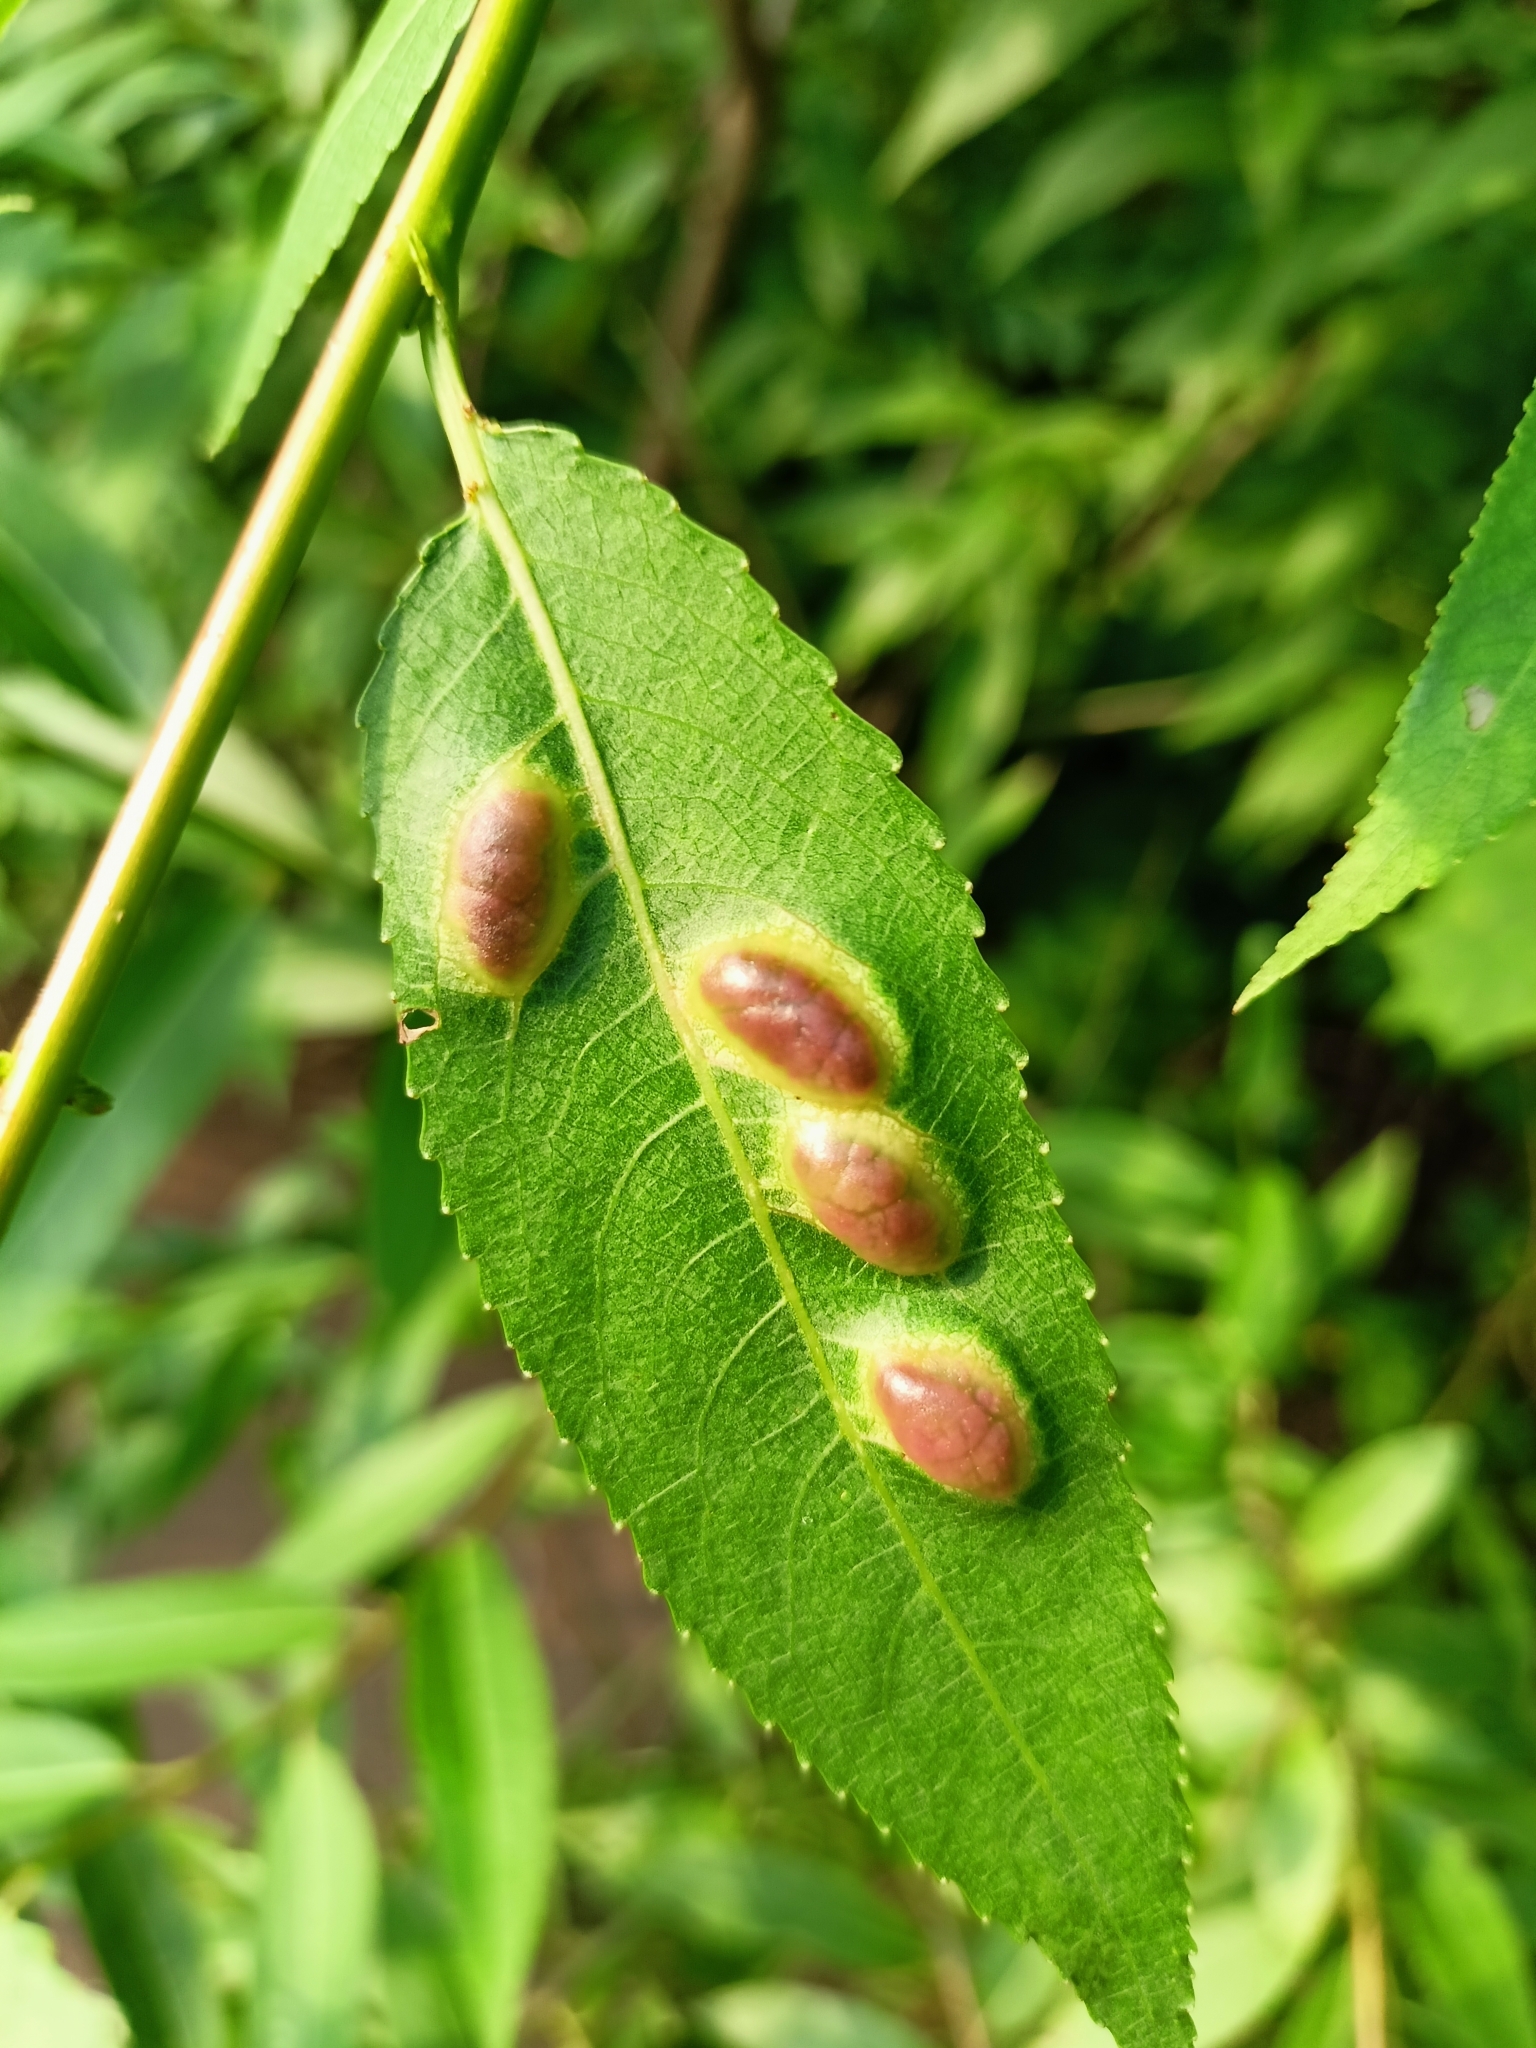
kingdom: Animalia
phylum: Arthropoda
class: Insecta
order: Hymenoptera
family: Tenthredinidae
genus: Pontania
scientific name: Pontania proxima
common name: Common sawfly
